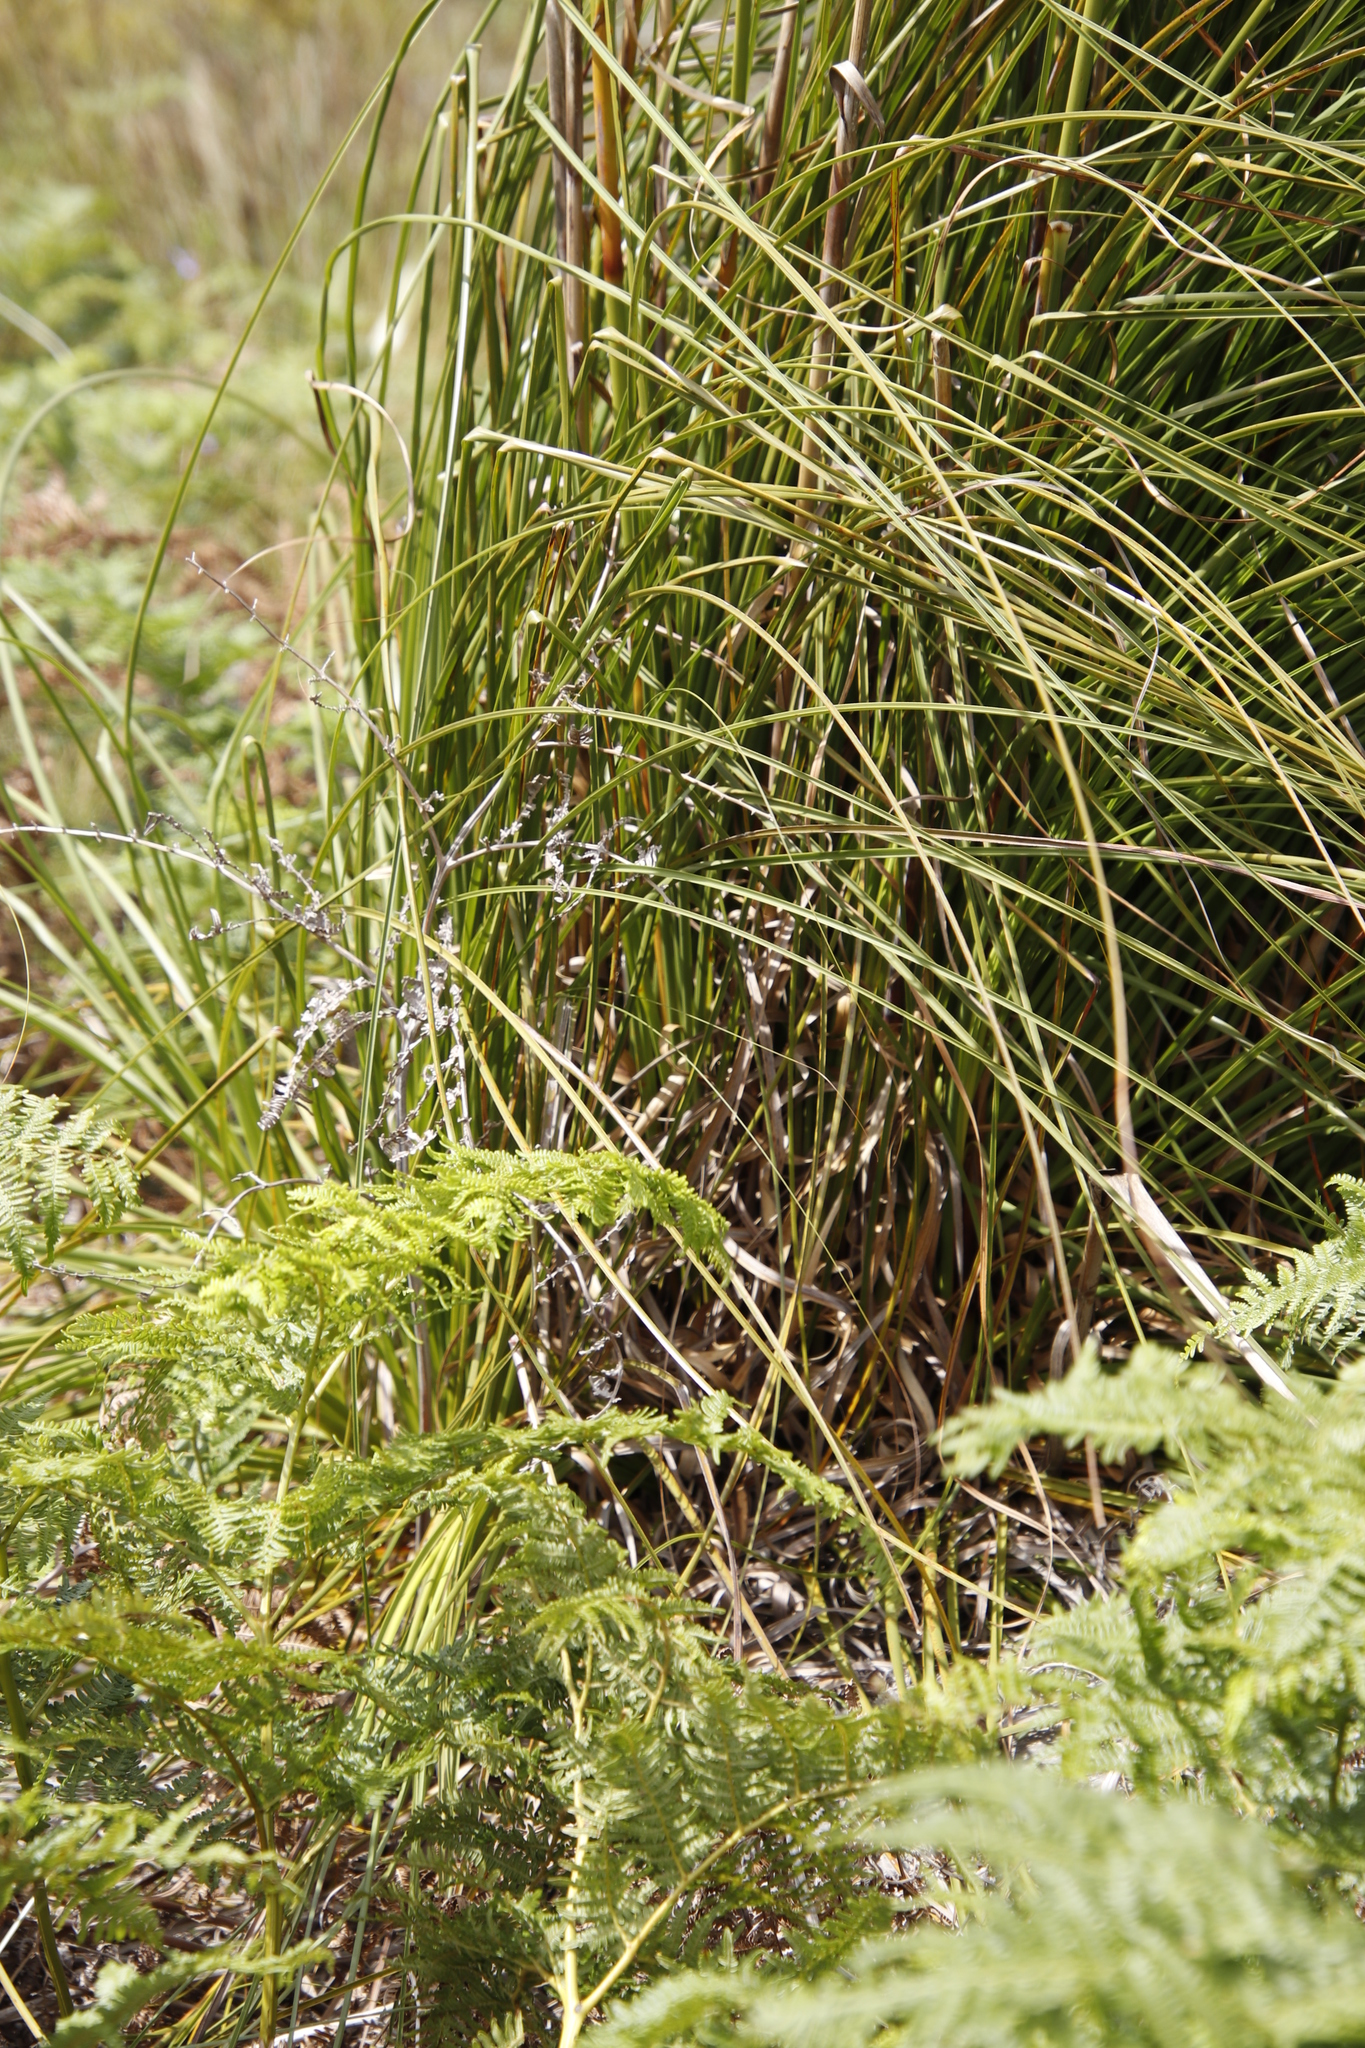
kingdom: Plantae
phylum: Tracheophyta
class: Liliopsida
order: Poales
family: Cyperaceae
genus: Tetraria
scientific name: Tetraria involucrata
